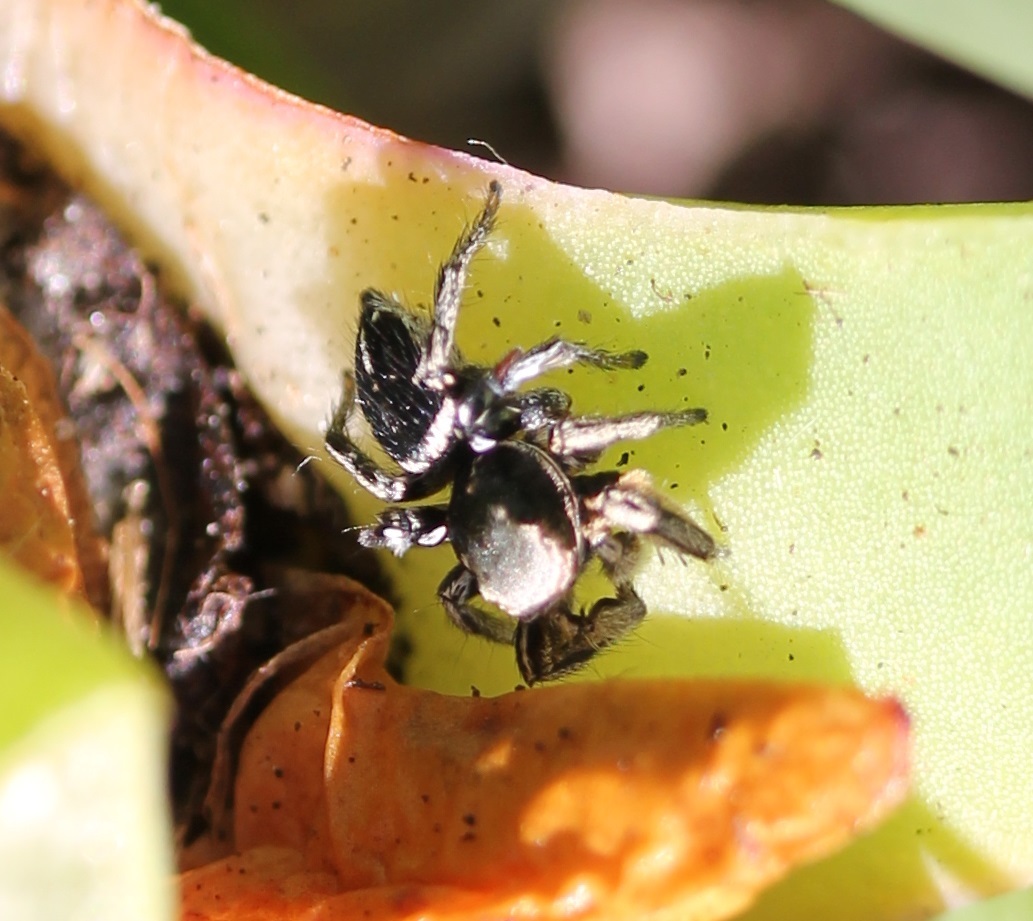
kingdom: Animalia
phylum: Arthropoda
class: Arachnida
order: Araneae
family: Salticidae
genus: Habronattus
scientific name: Habronattus schlingeri
